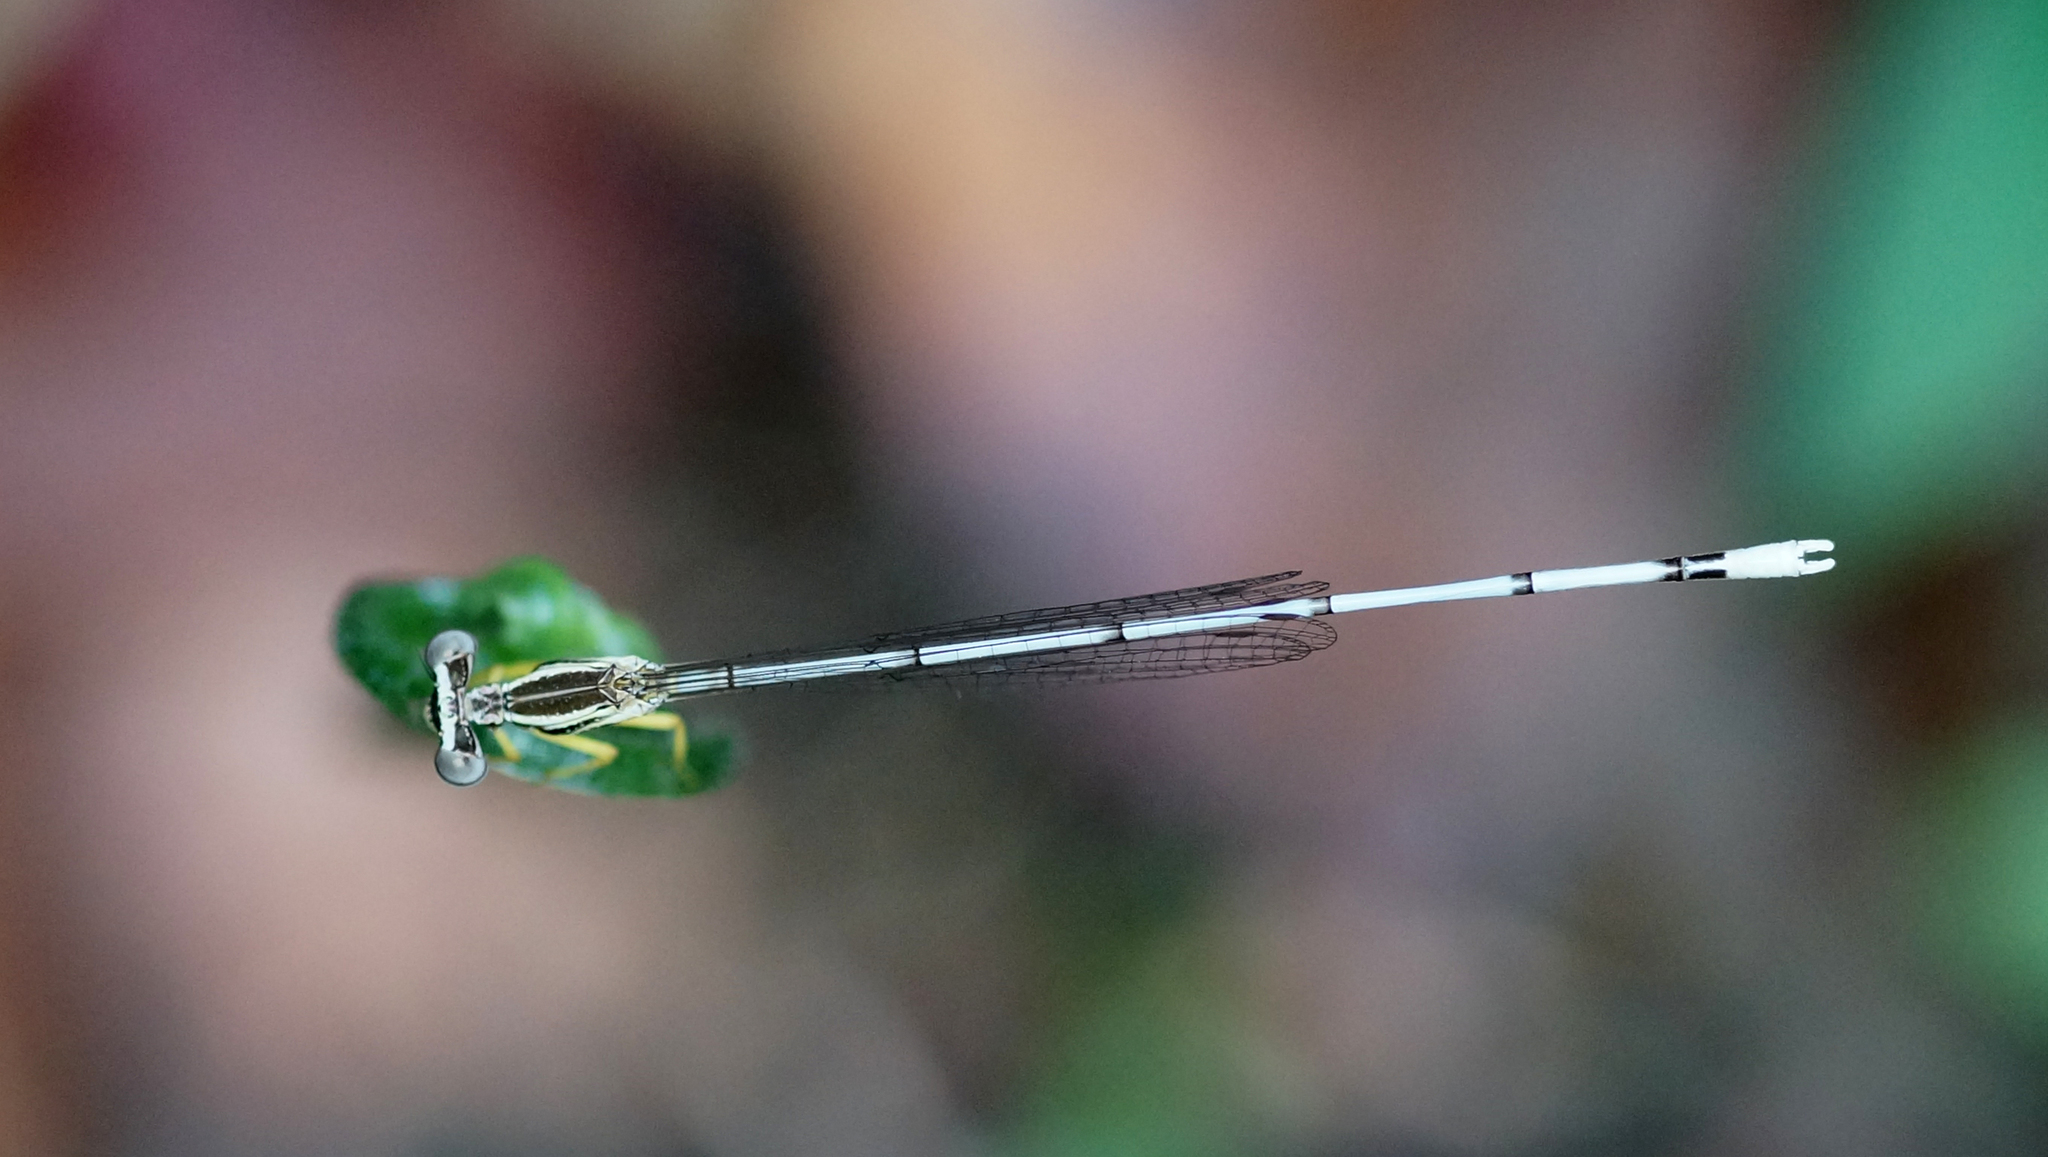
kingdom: Animalia
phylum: Arthropoda
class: Insecta
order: Odonata
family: Platycnemididae
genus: Copera
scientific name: Copera marginipes
